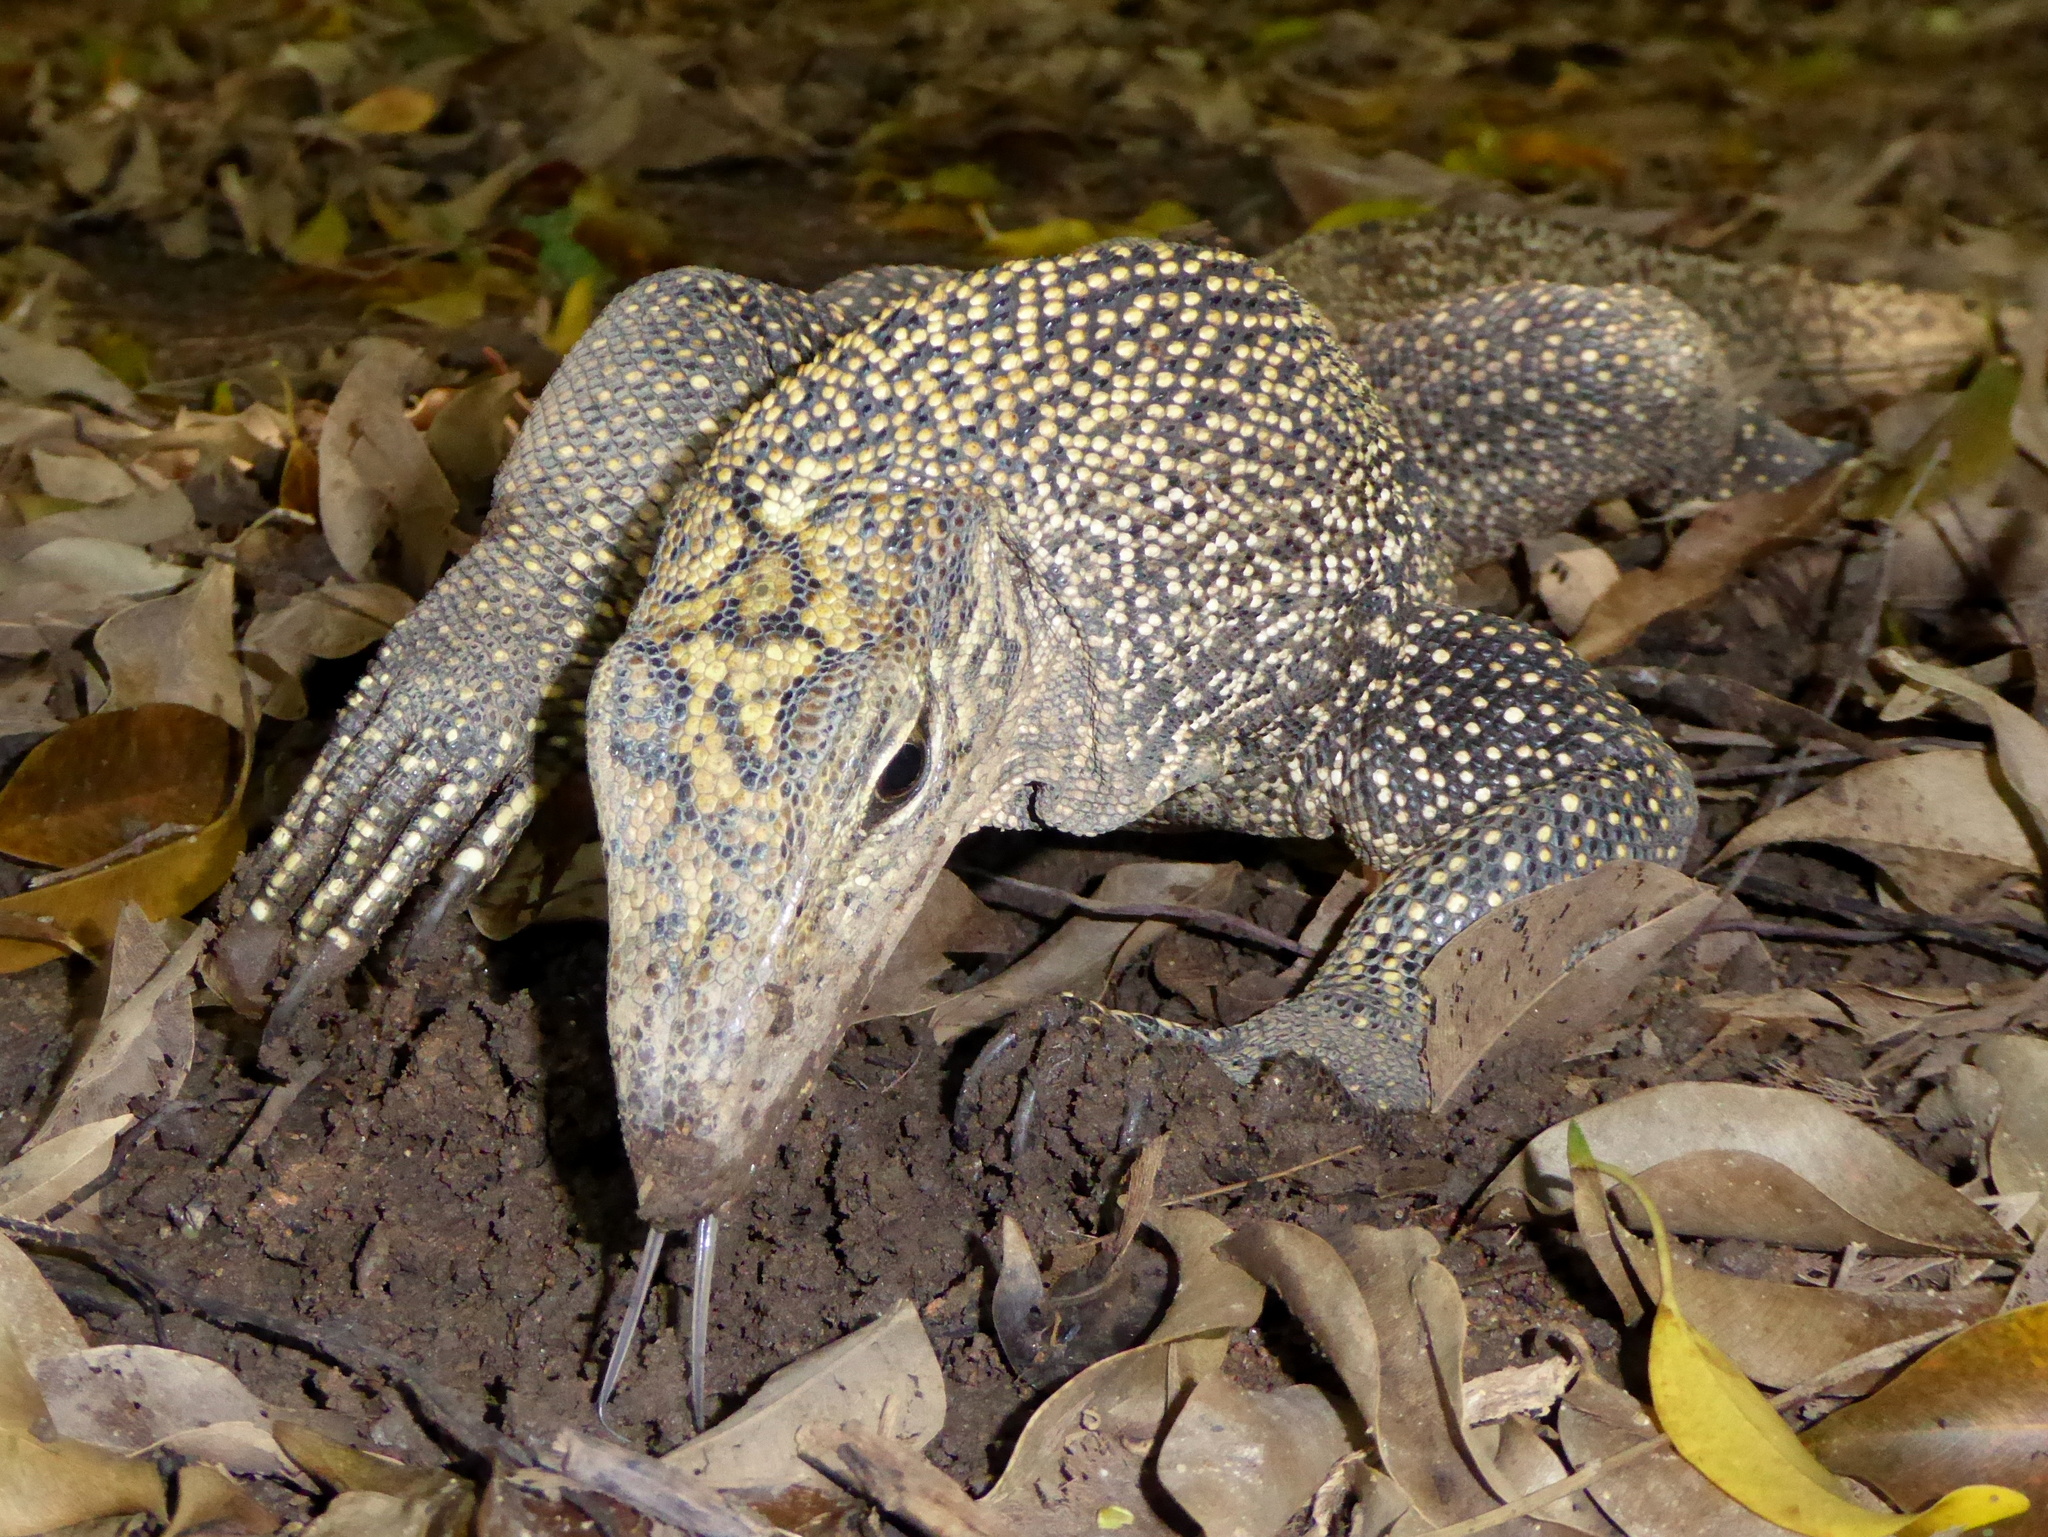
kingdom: Animalia
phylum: Chordata
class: Squamata
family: Varanidae
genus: Varanus
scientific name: Varanus nebulosus
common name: Clouded monitor
